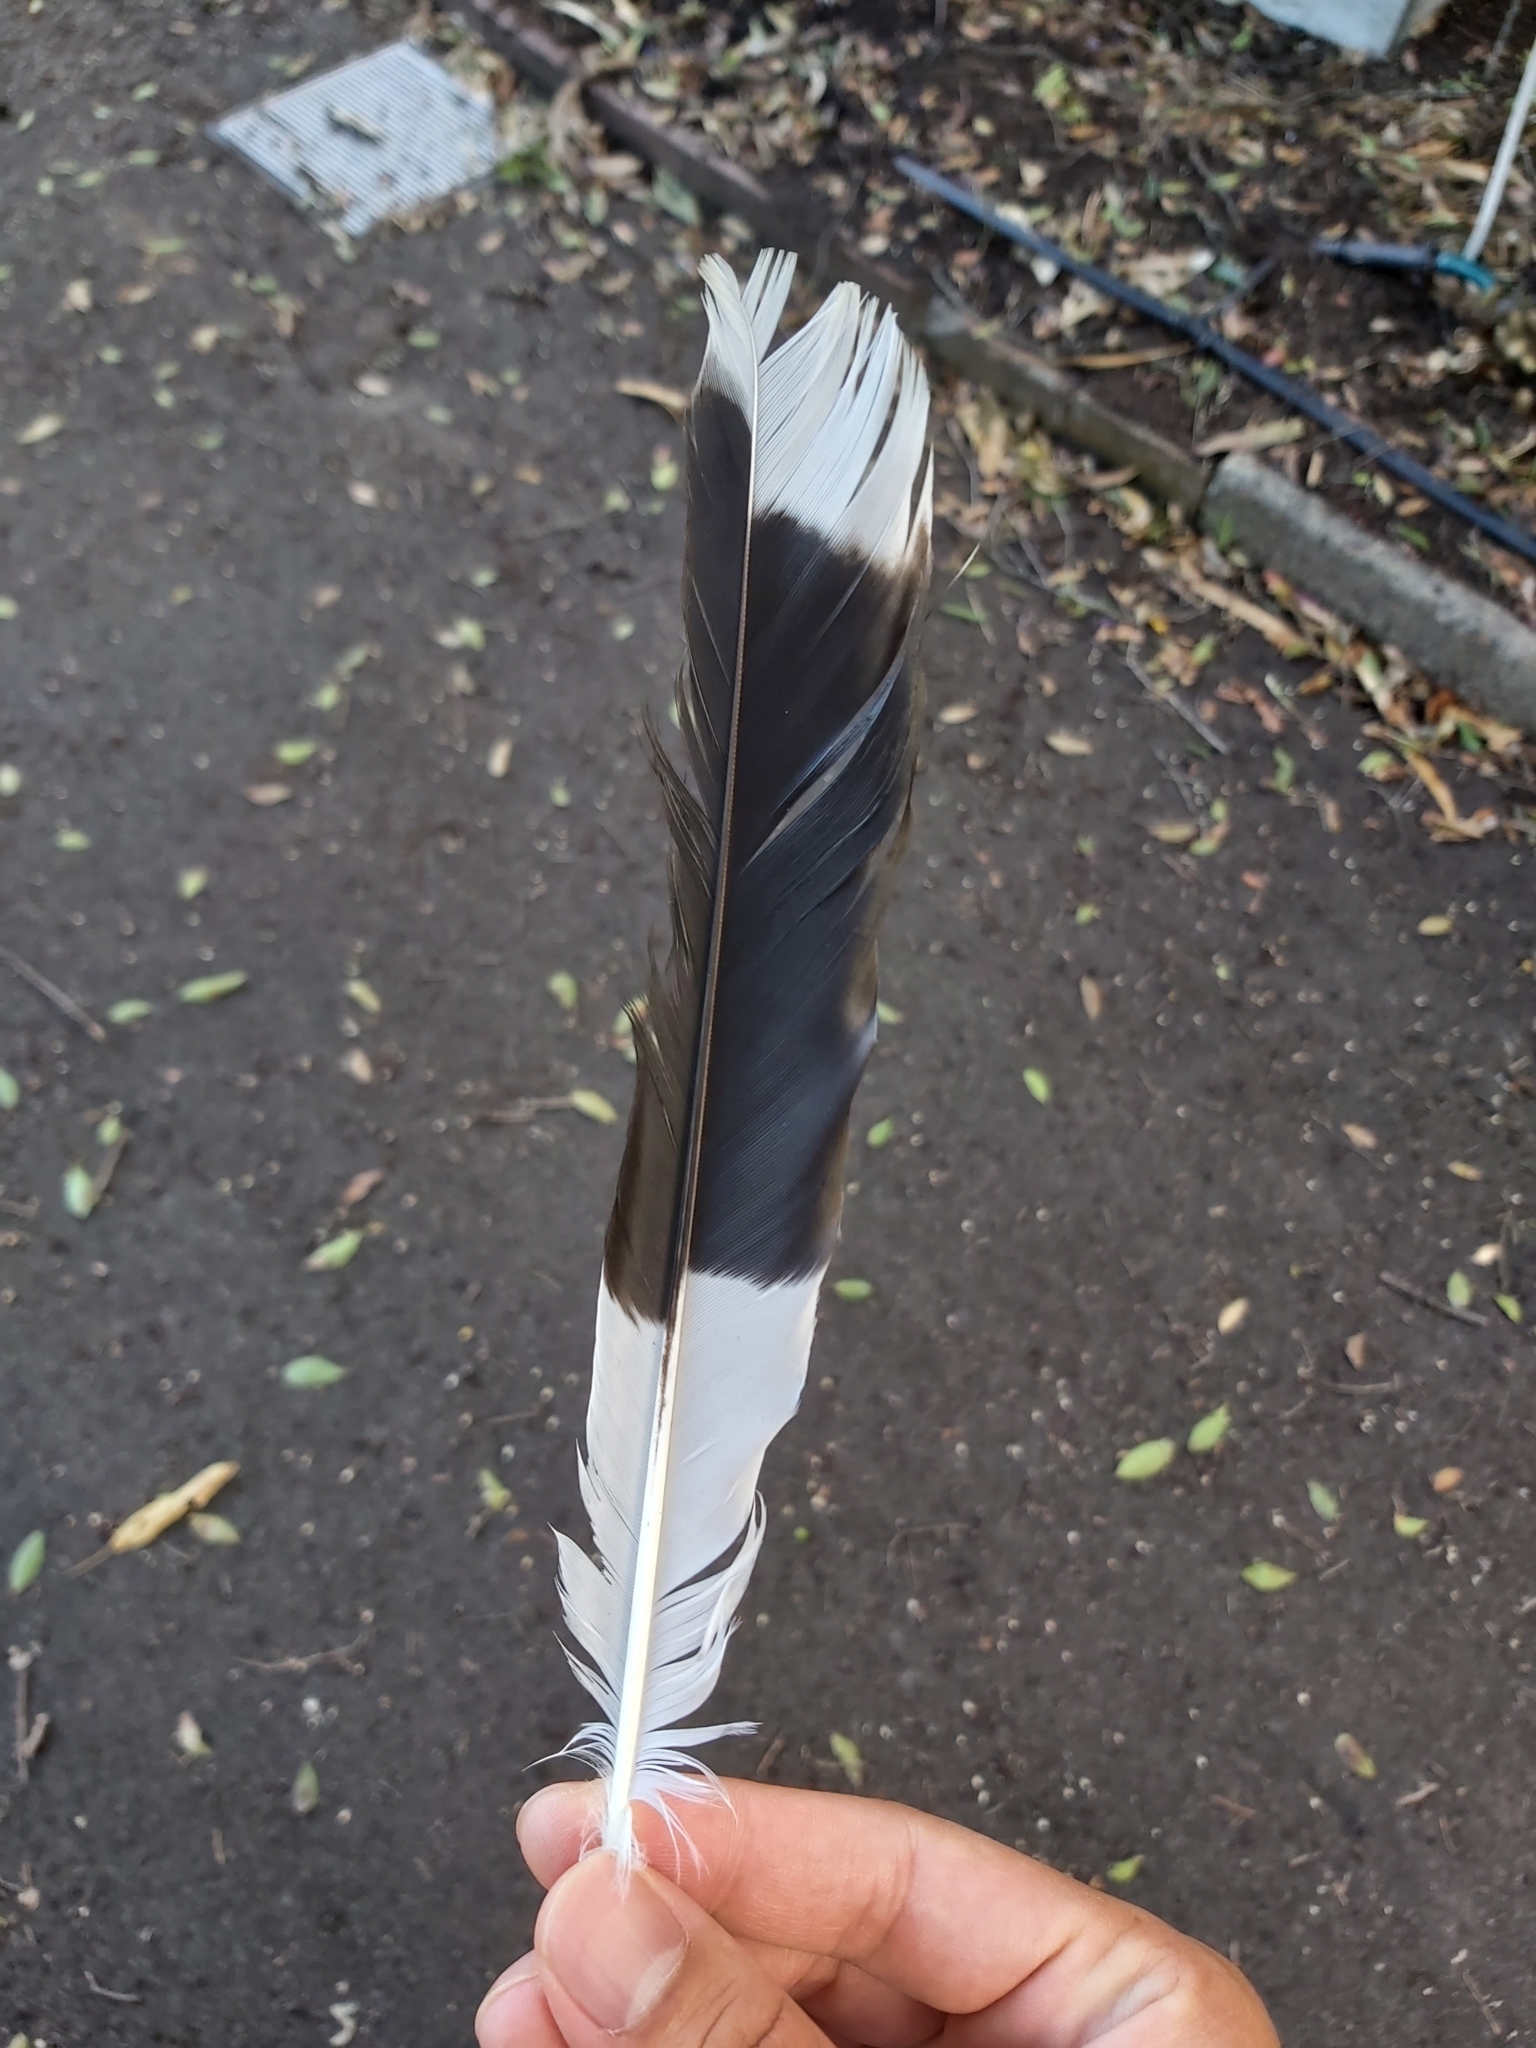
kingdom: Animalia
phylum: Chordata
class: Aves
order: Passeriformes
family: Cracticidae
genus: Strepera
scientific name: Strepera graculina
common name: Pied currawong
